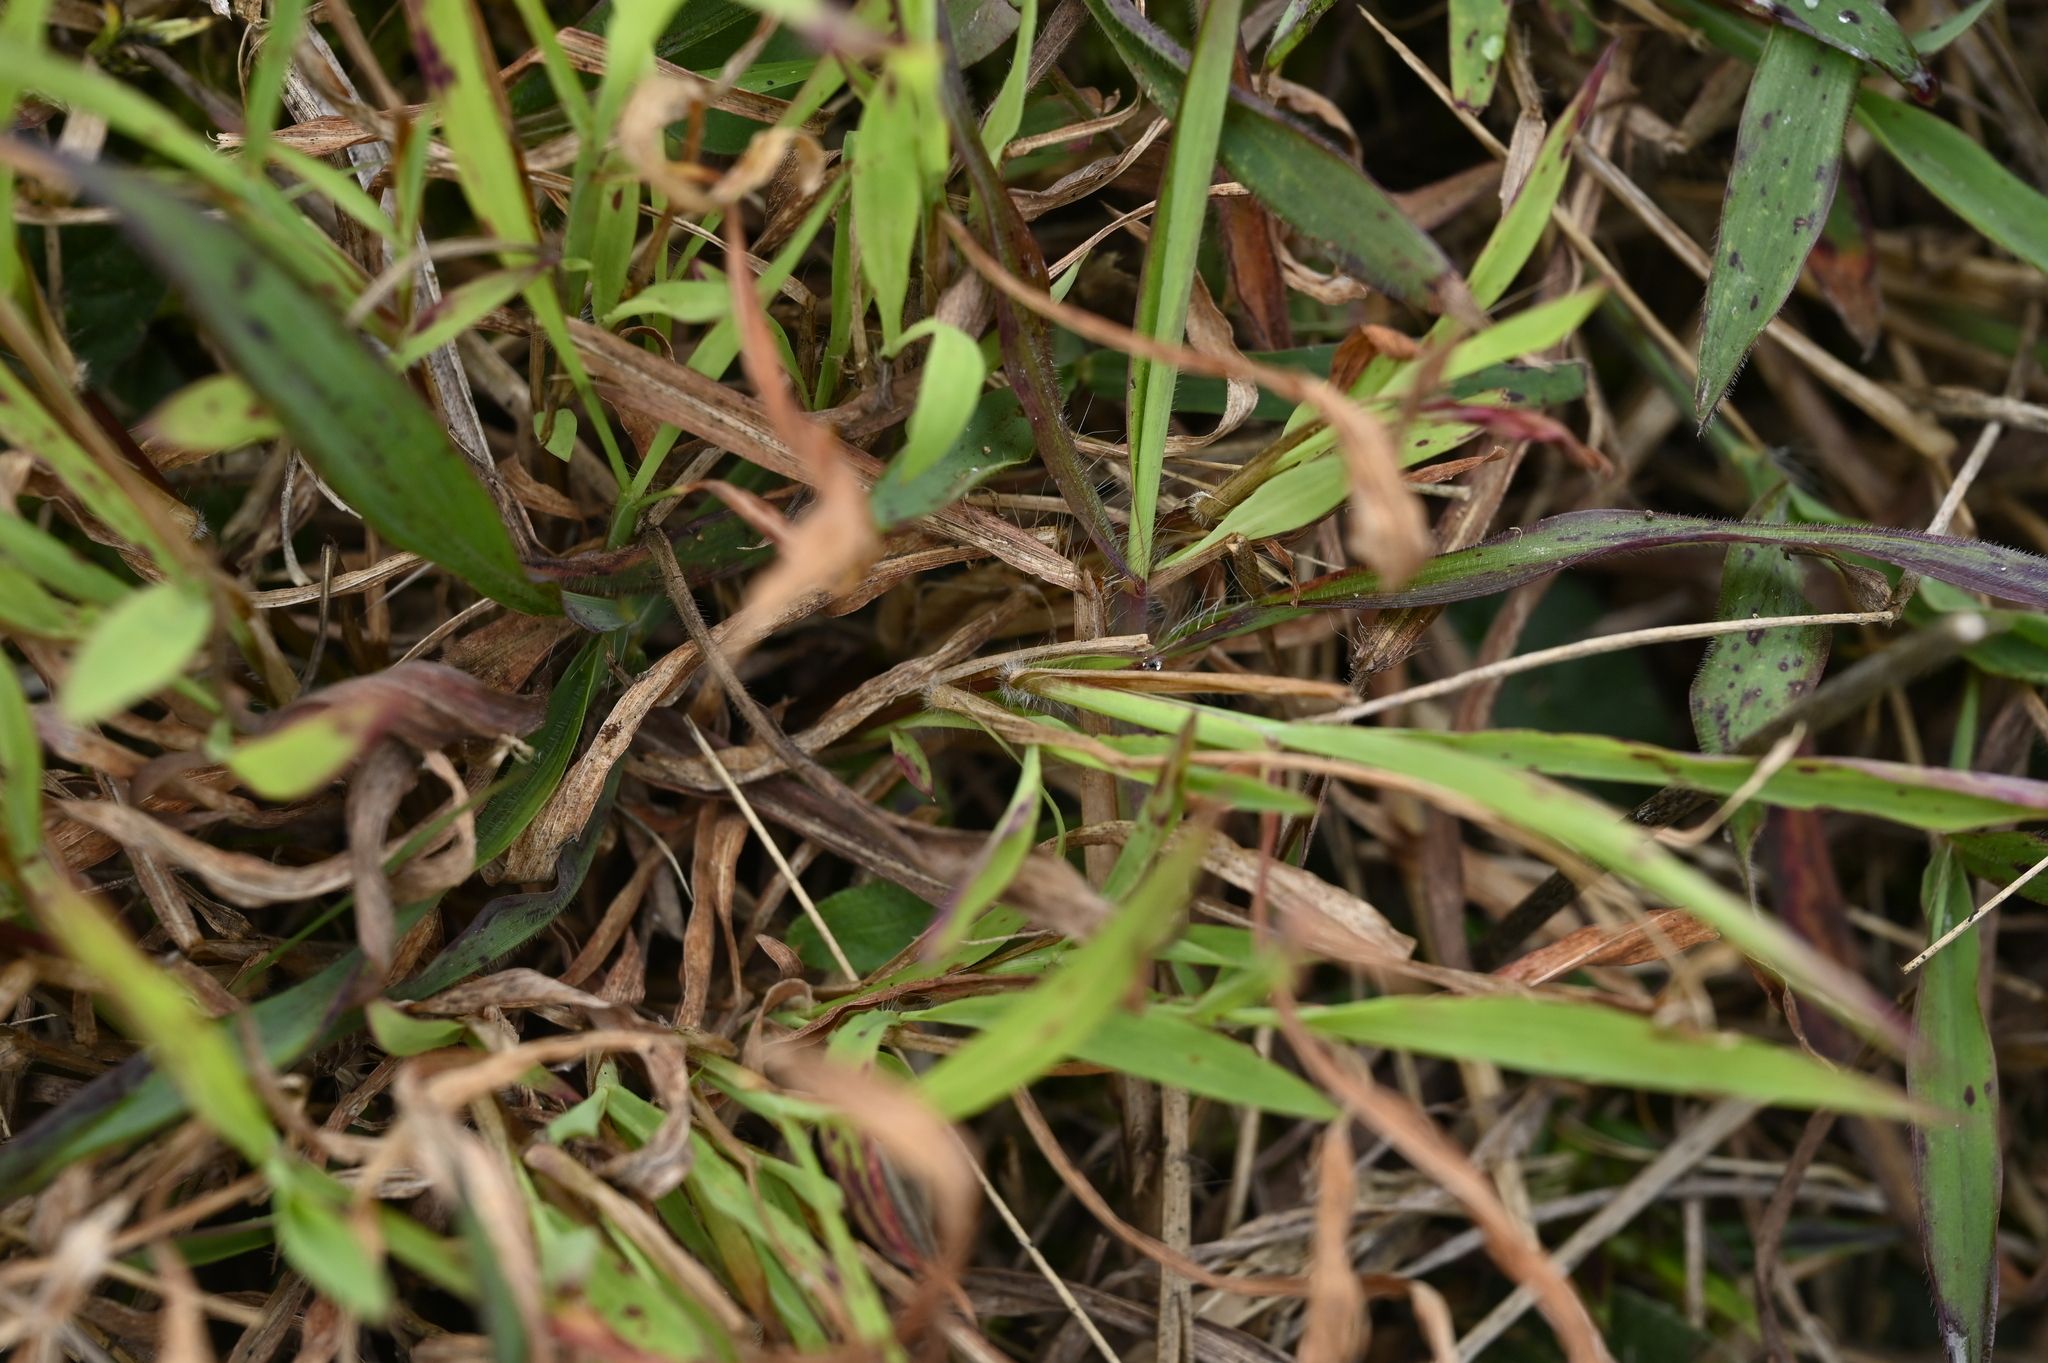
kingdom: Plantae
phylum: Tracheophyta
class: Liliopsida
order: Poales
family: Poaceae
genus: Dimeria
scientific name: Dimeria ornithopoda
